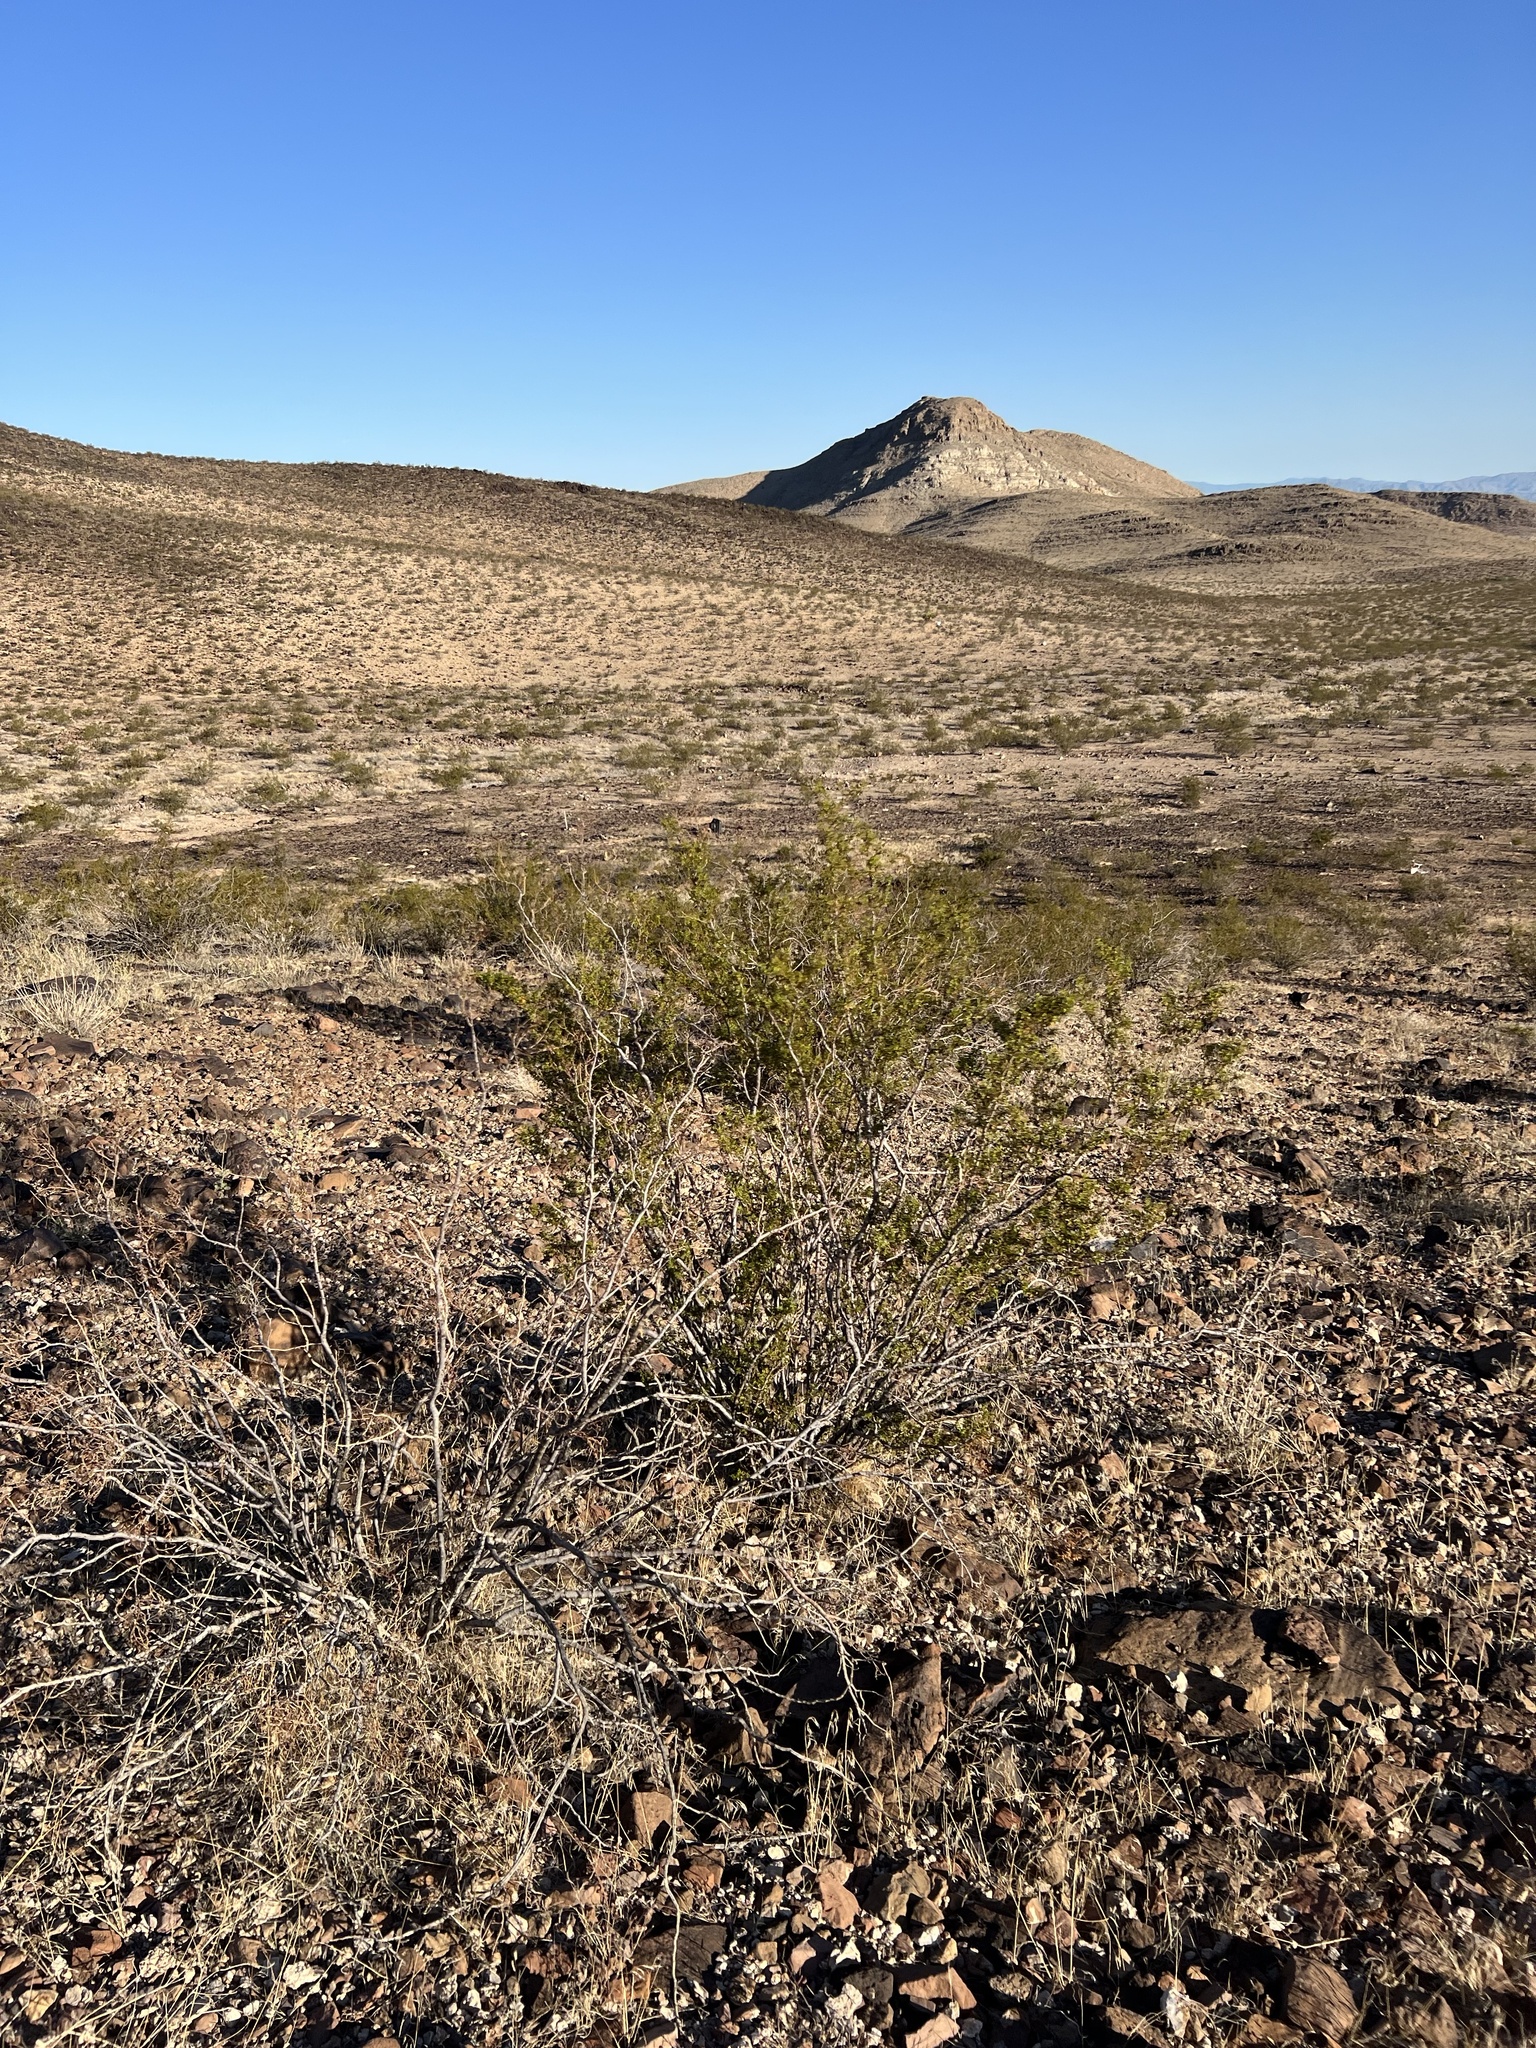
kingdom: Plantae
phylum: Tracheophyta
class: Magnoliopsida
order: Zygophyllales
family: Zygophyllaceae
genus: Larrea
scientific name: Larrea tridentata
